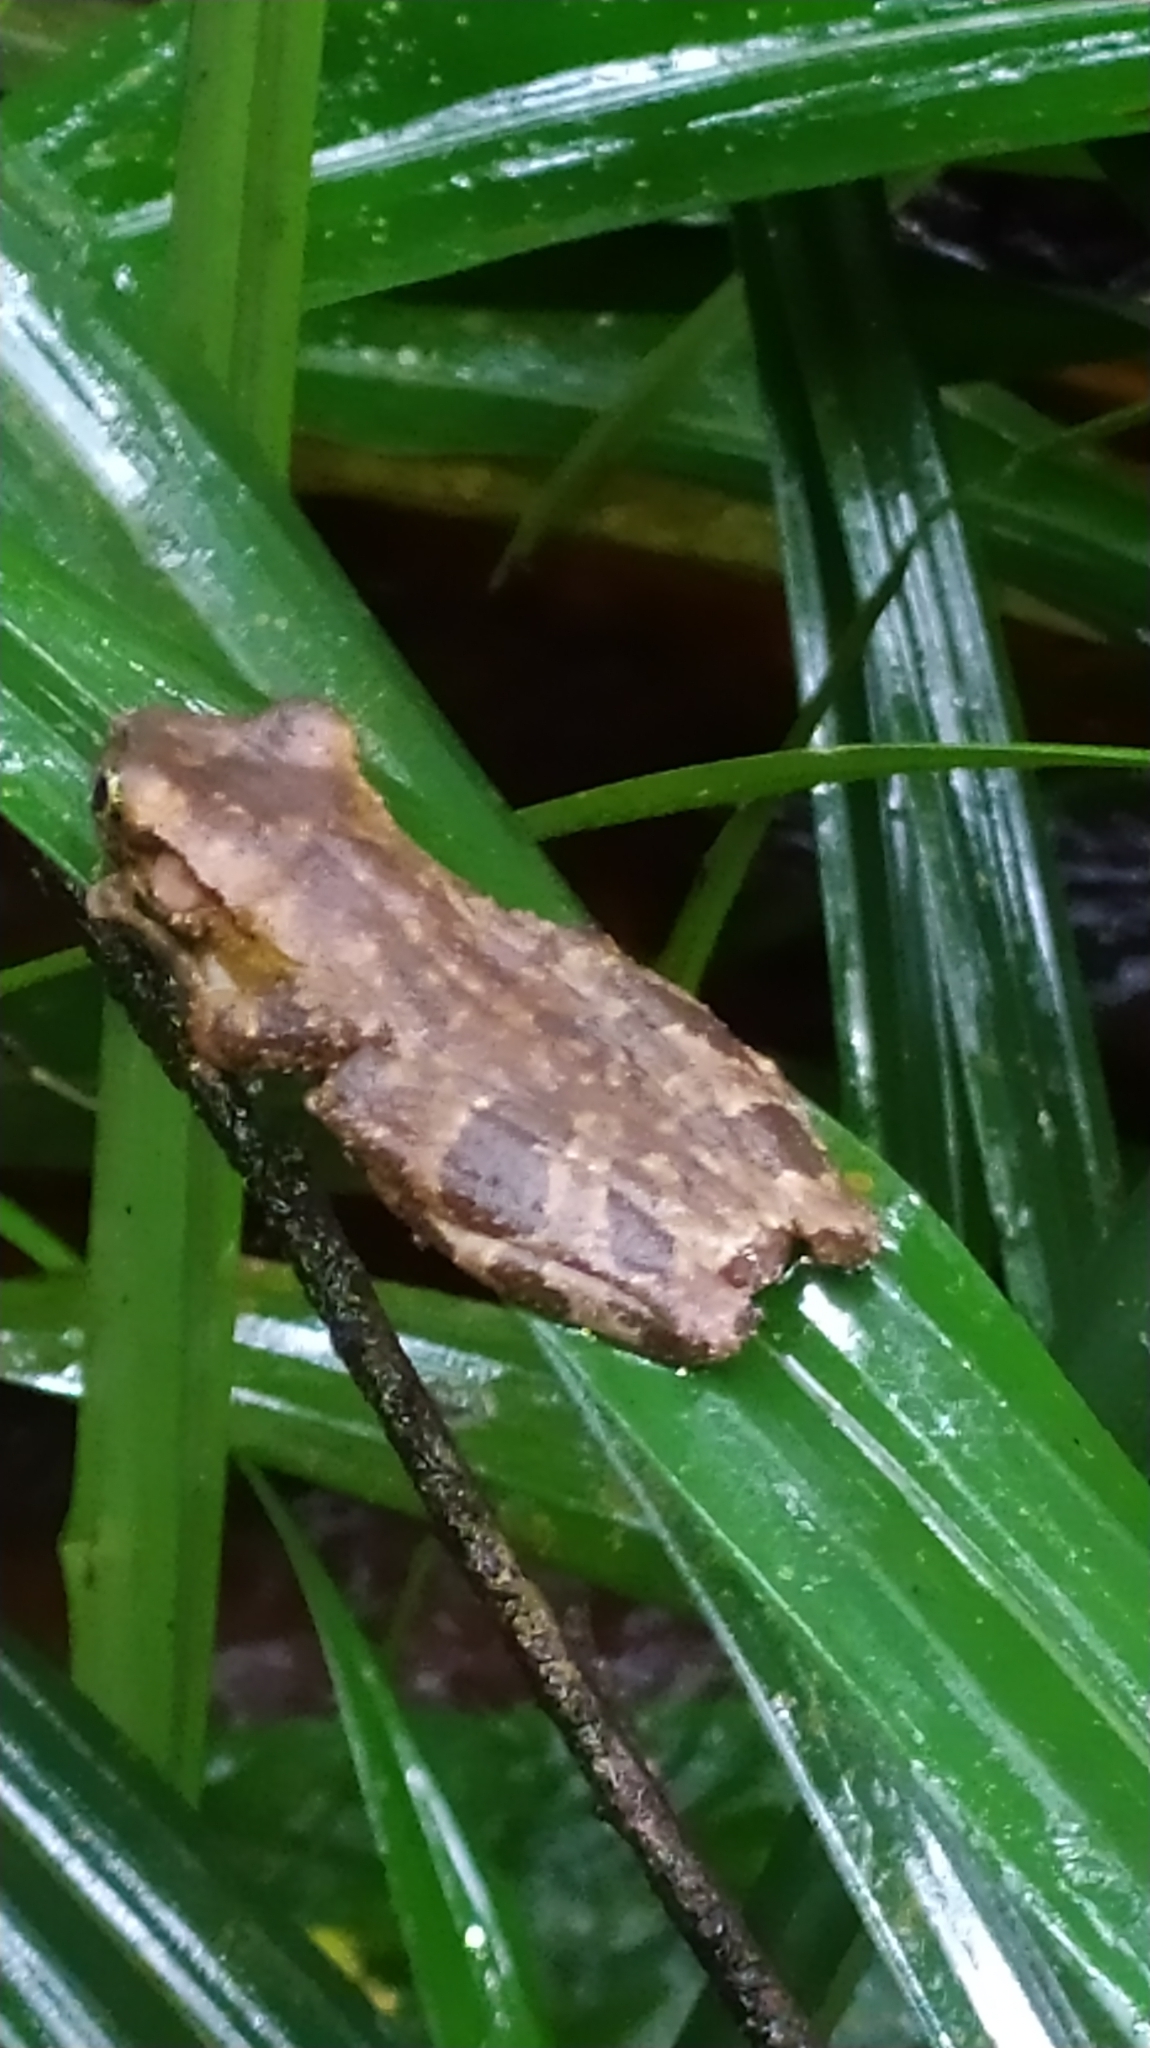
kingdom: Animalia
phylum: Chordata
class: Amphibia
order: Anura
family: Hylidae
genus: Osteocephalus
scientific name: Osteocephalus taurinus
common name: Manaus slender-legged treefrog
